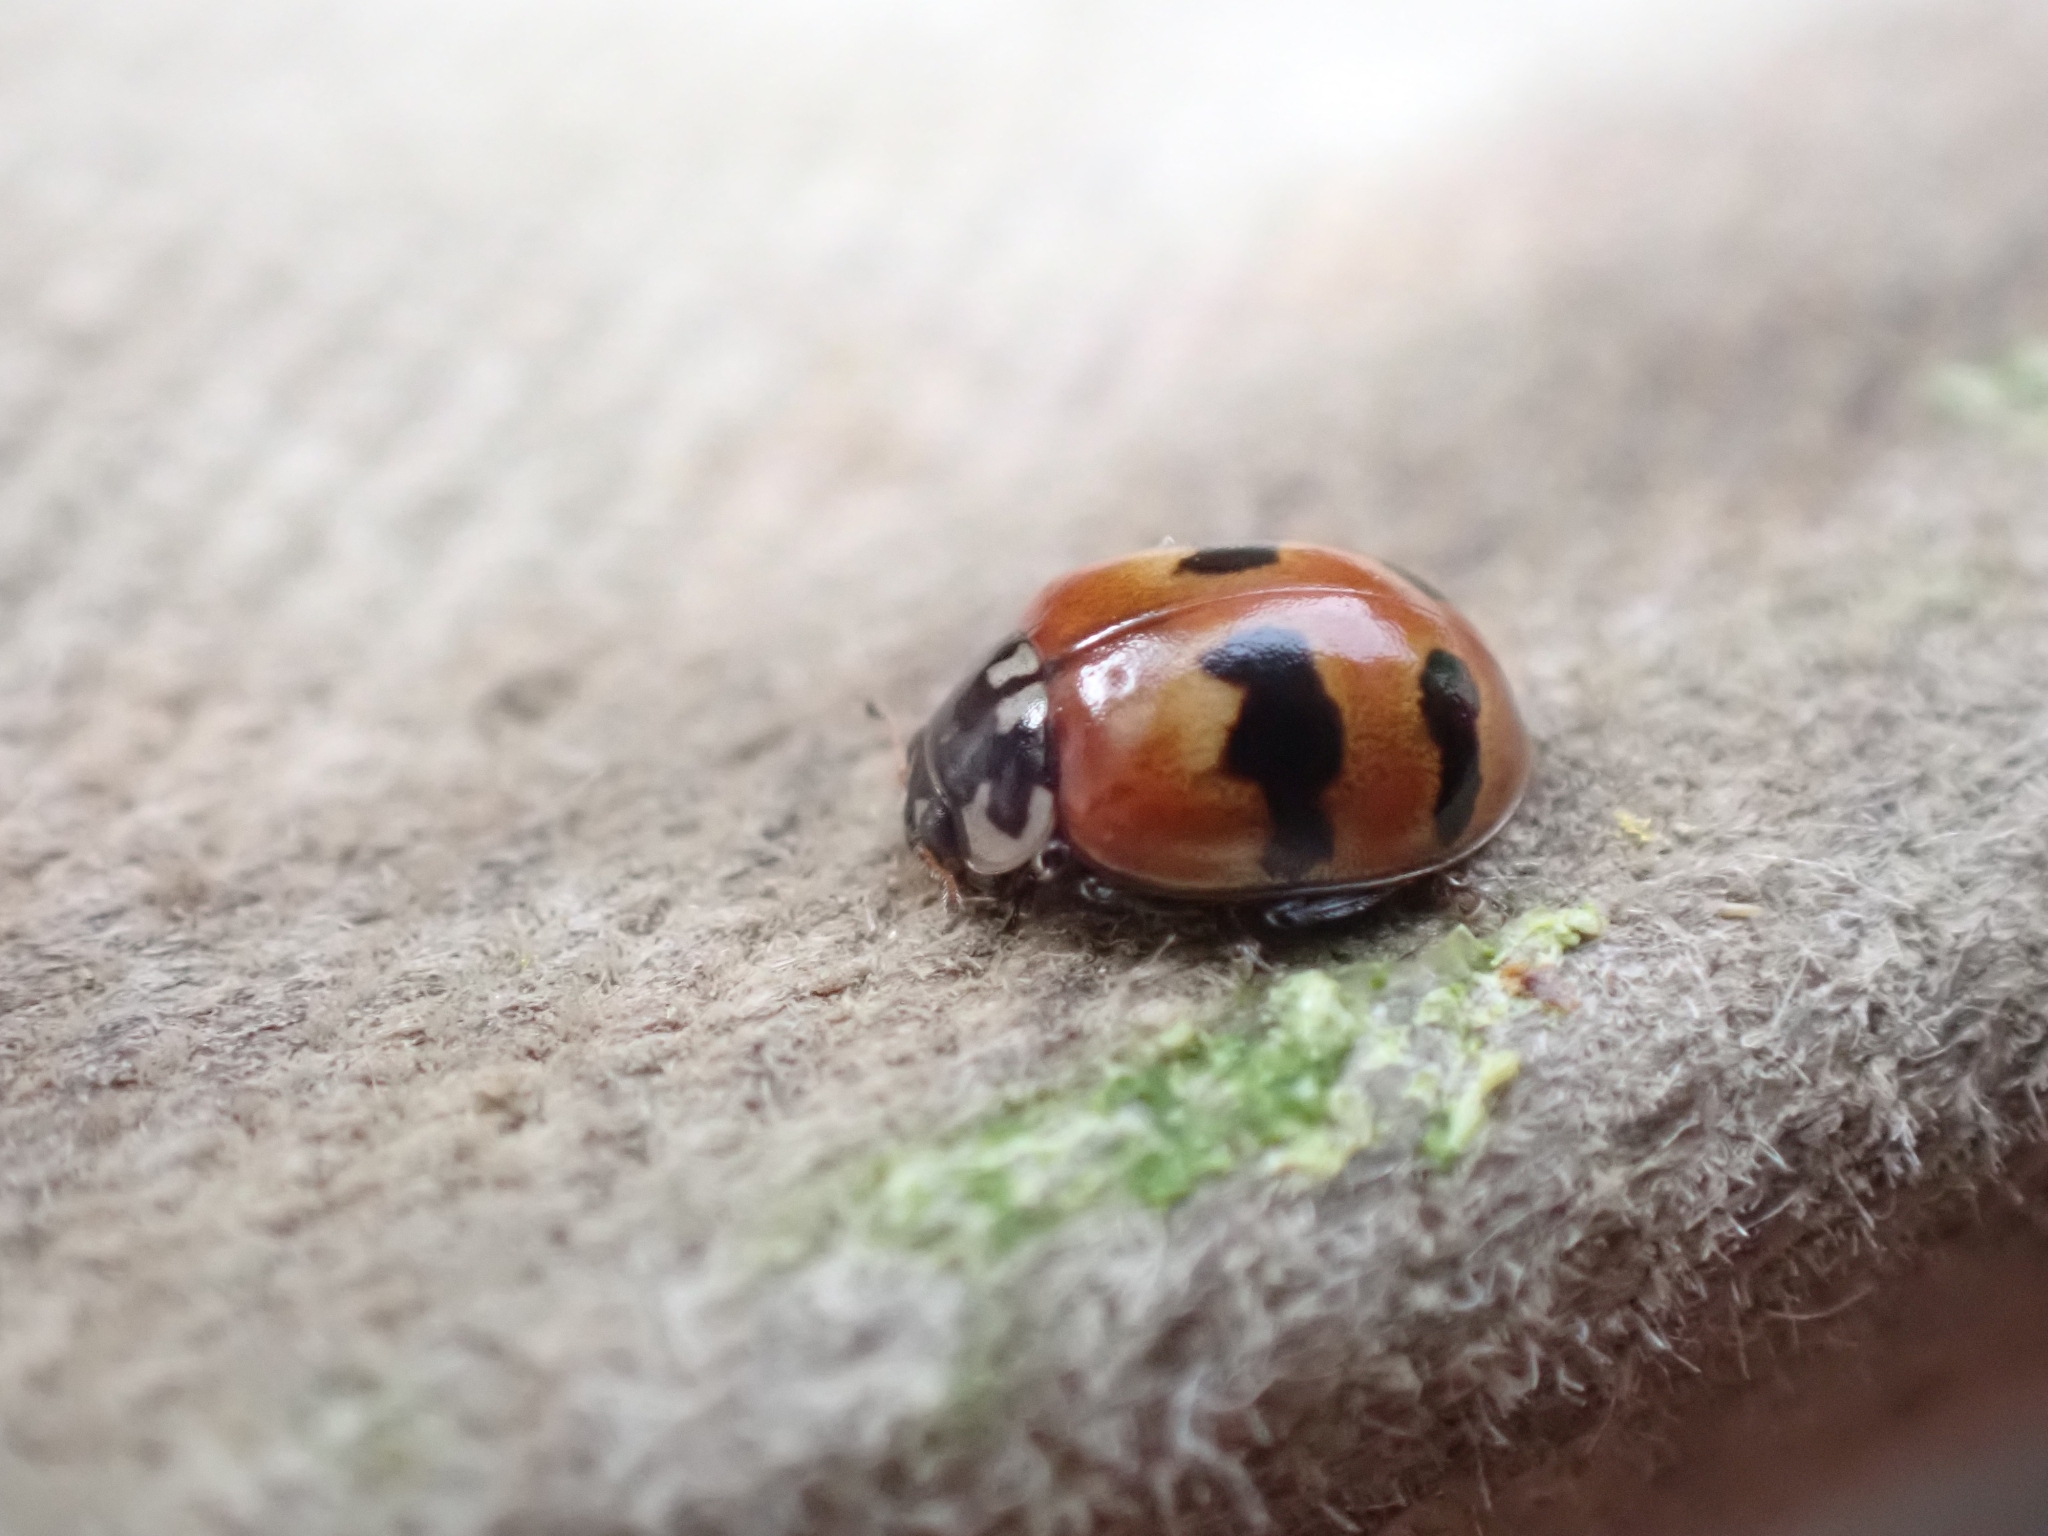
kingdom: Animalia
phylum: Arthropoda
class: Insecta
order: Coleoptera
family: Coccinellidae
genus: Adalia
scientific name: Adalia bipunctata
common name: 2-spot ladybird
